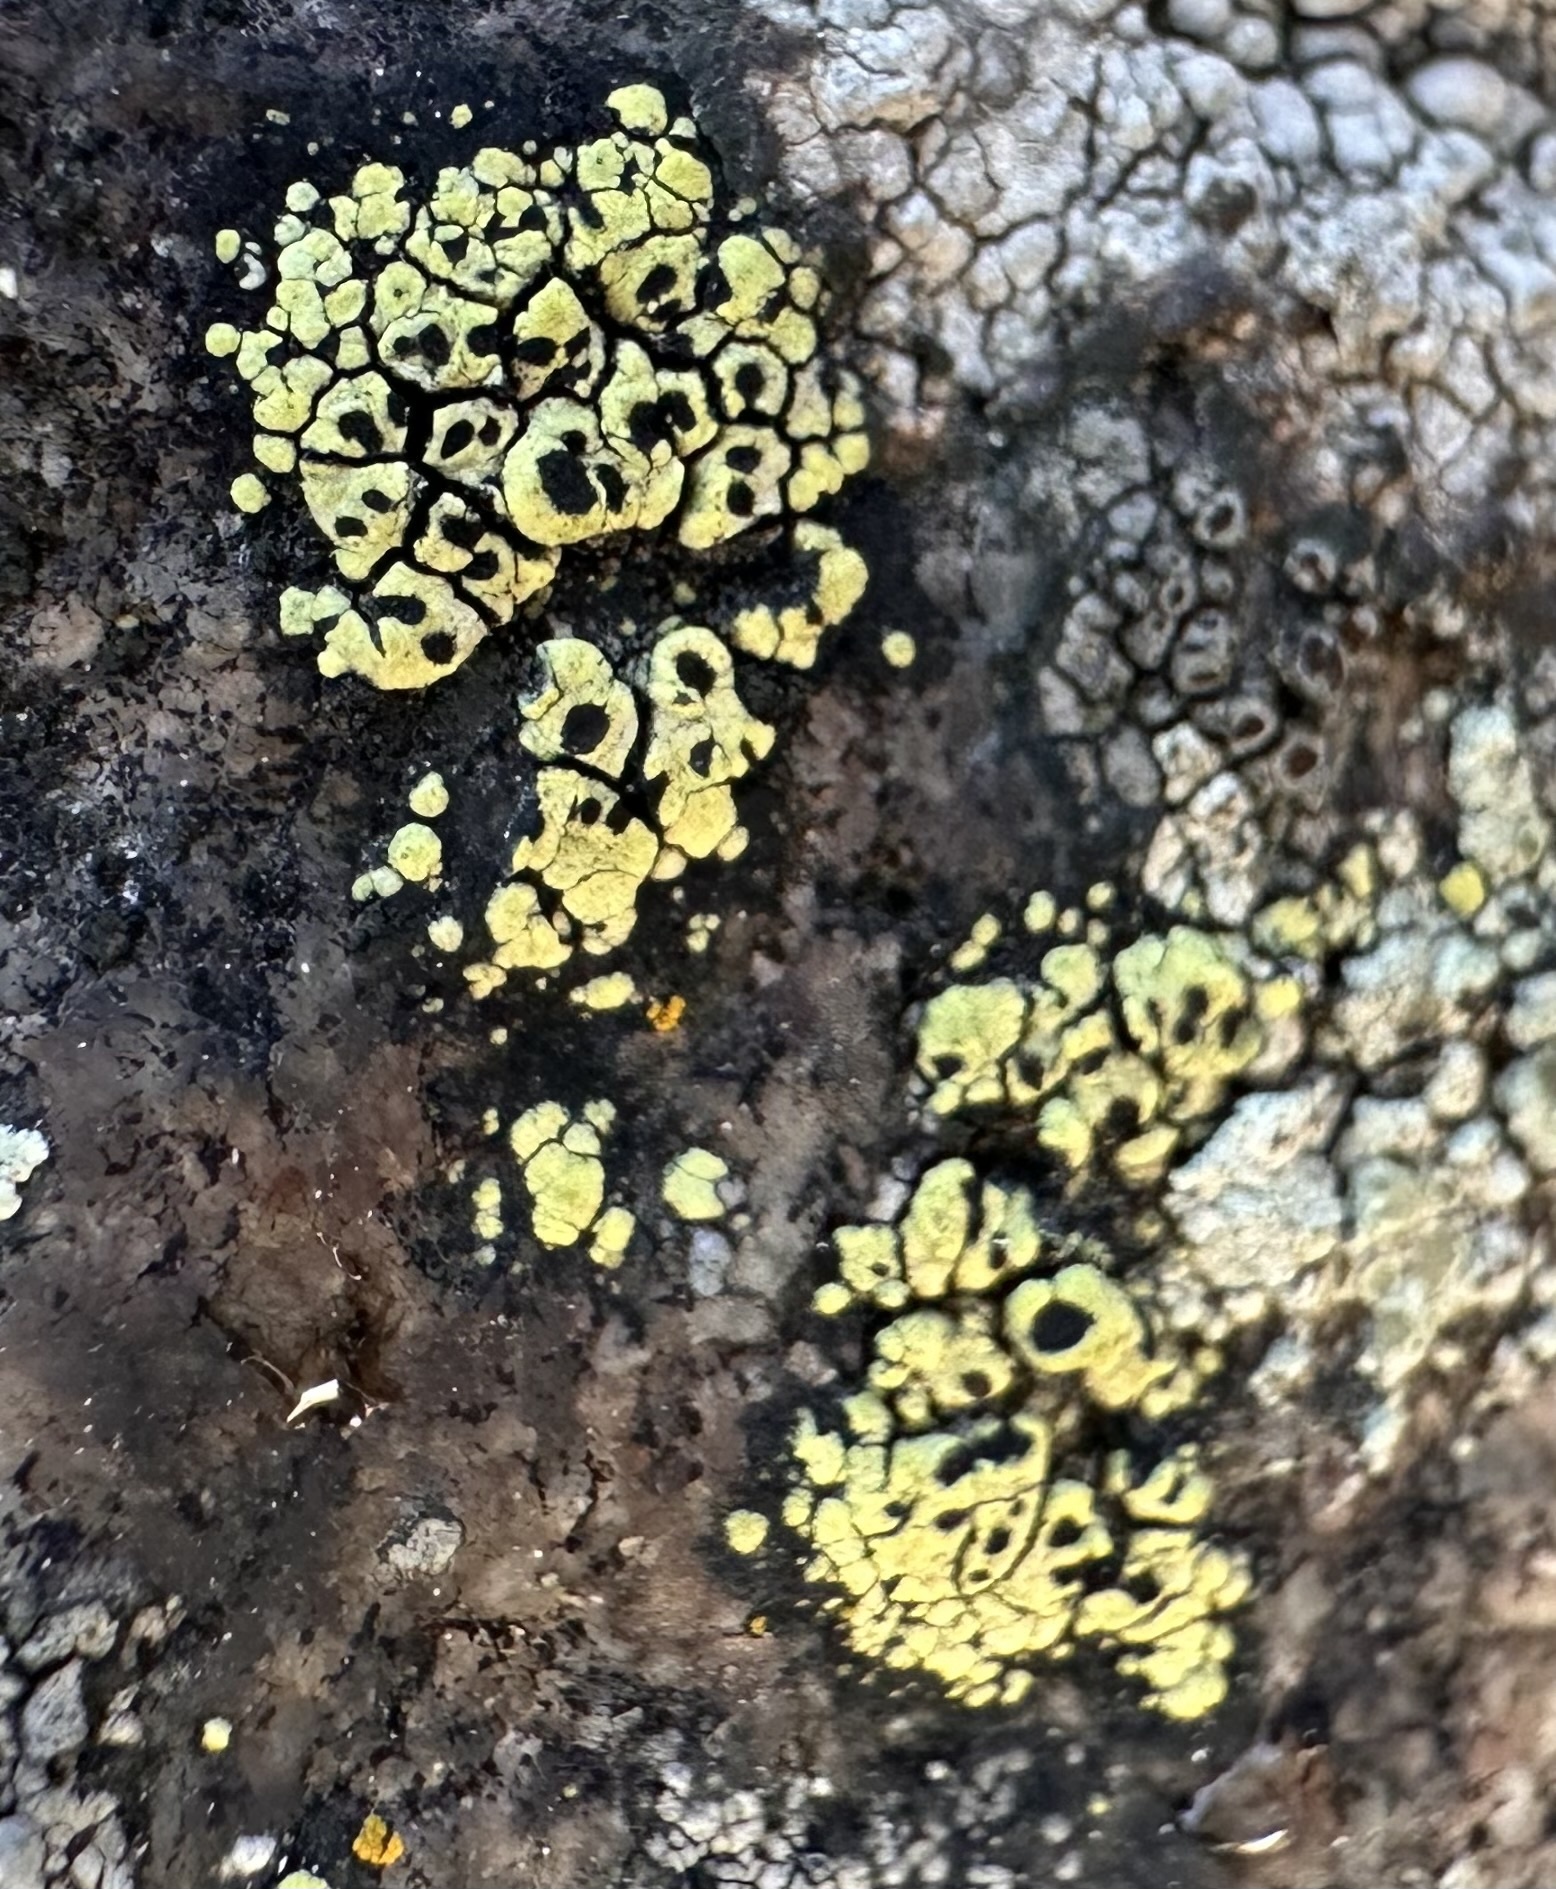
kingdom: Fungi
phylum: Ascomycota
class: Lecanoromycetes
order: Rhizocarpales
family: Rhizocarpaceae
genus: Rhizocarpon
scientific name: Rhizocarpon lecanorinum
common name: Crescent map lichen
